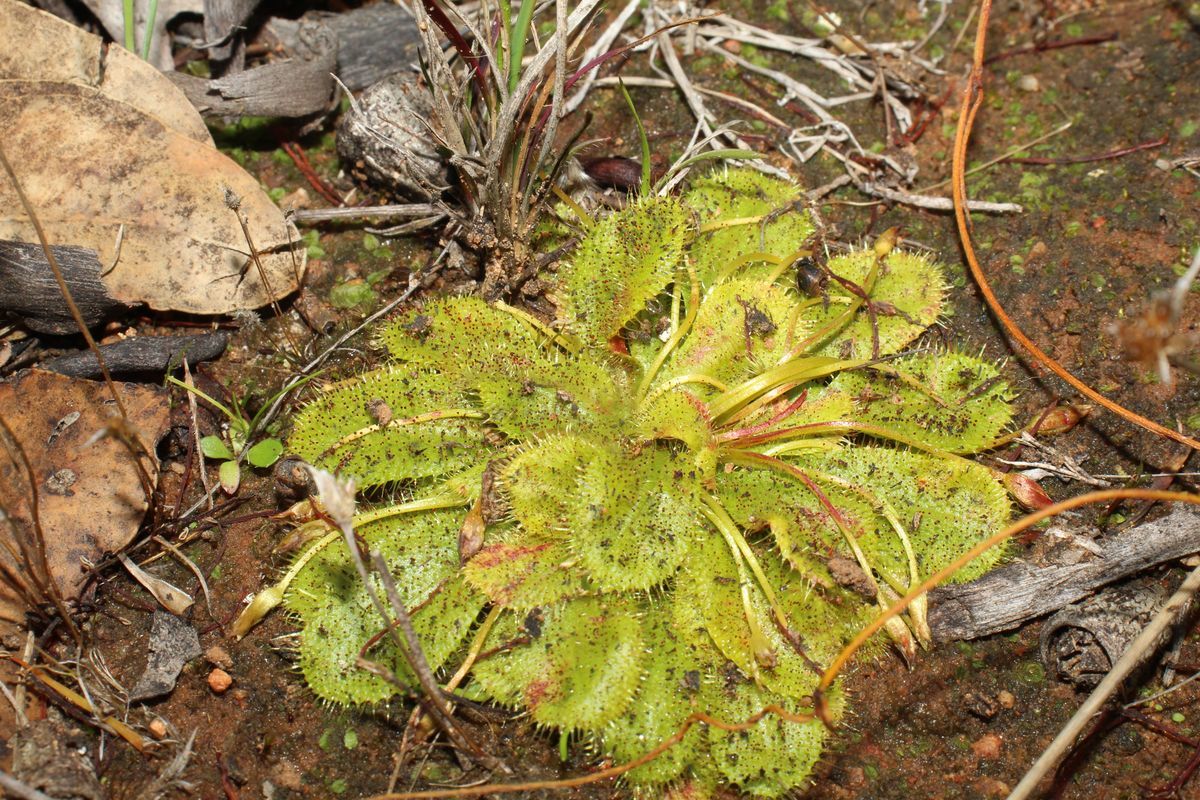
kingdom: Plantae
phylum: Tracheophyta
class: Magnoliopsida
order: Caryophyllales
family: Droseraceae
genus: Drosera
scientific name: Drosera bulbosa
